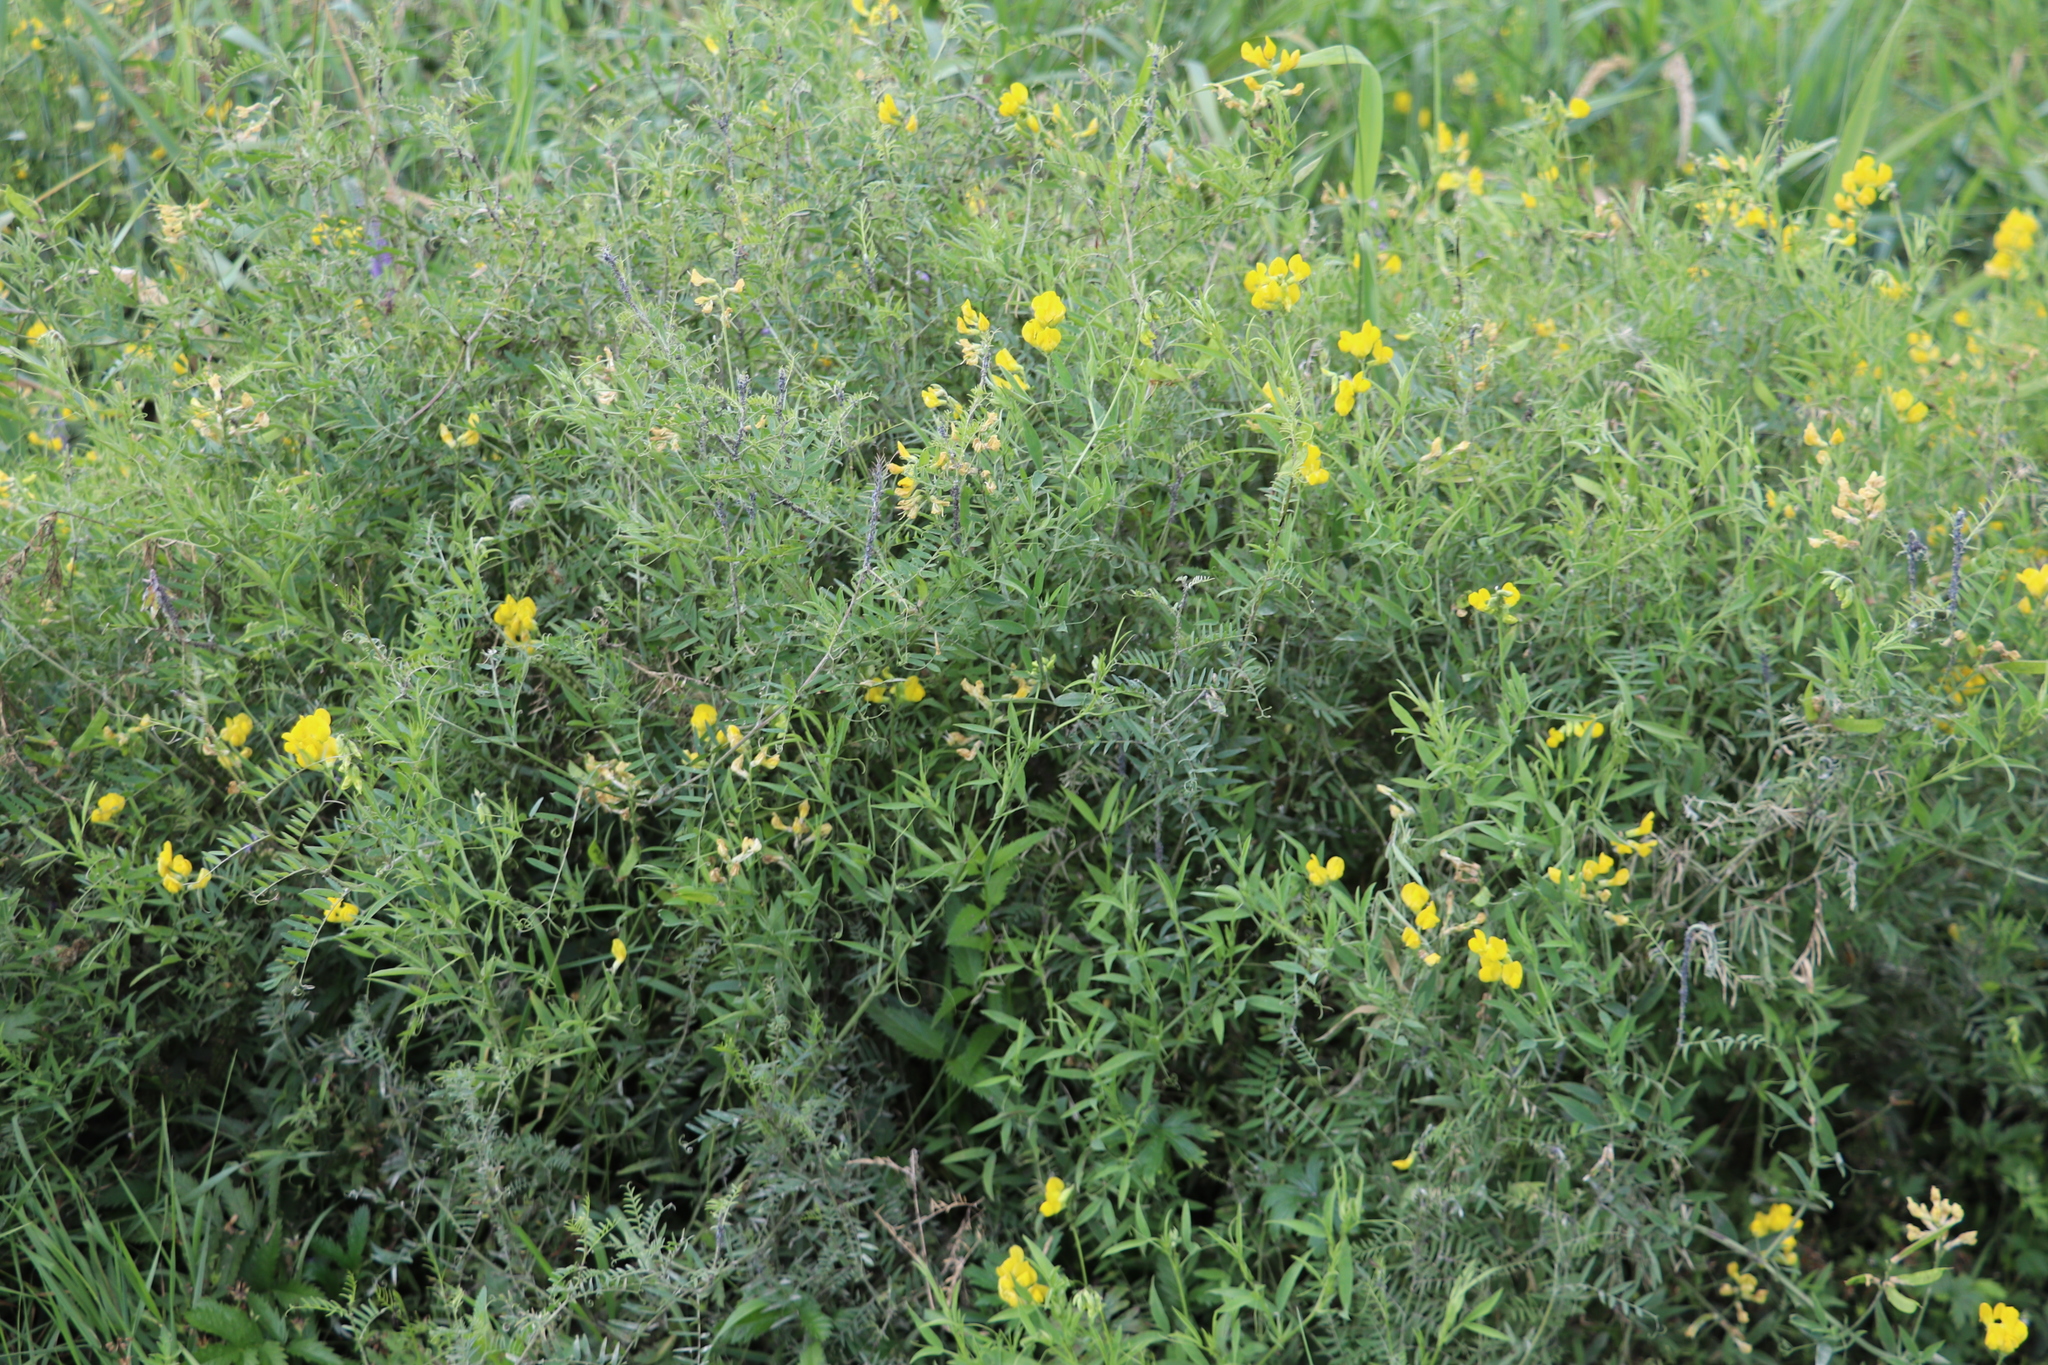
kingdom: Plantae
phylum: Tracheophyta
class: Magnoliopsida
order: Fabales
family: Fabaceae
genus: Lathyrus
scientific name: Lathyrus pratensis
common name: Meadow vetchling
